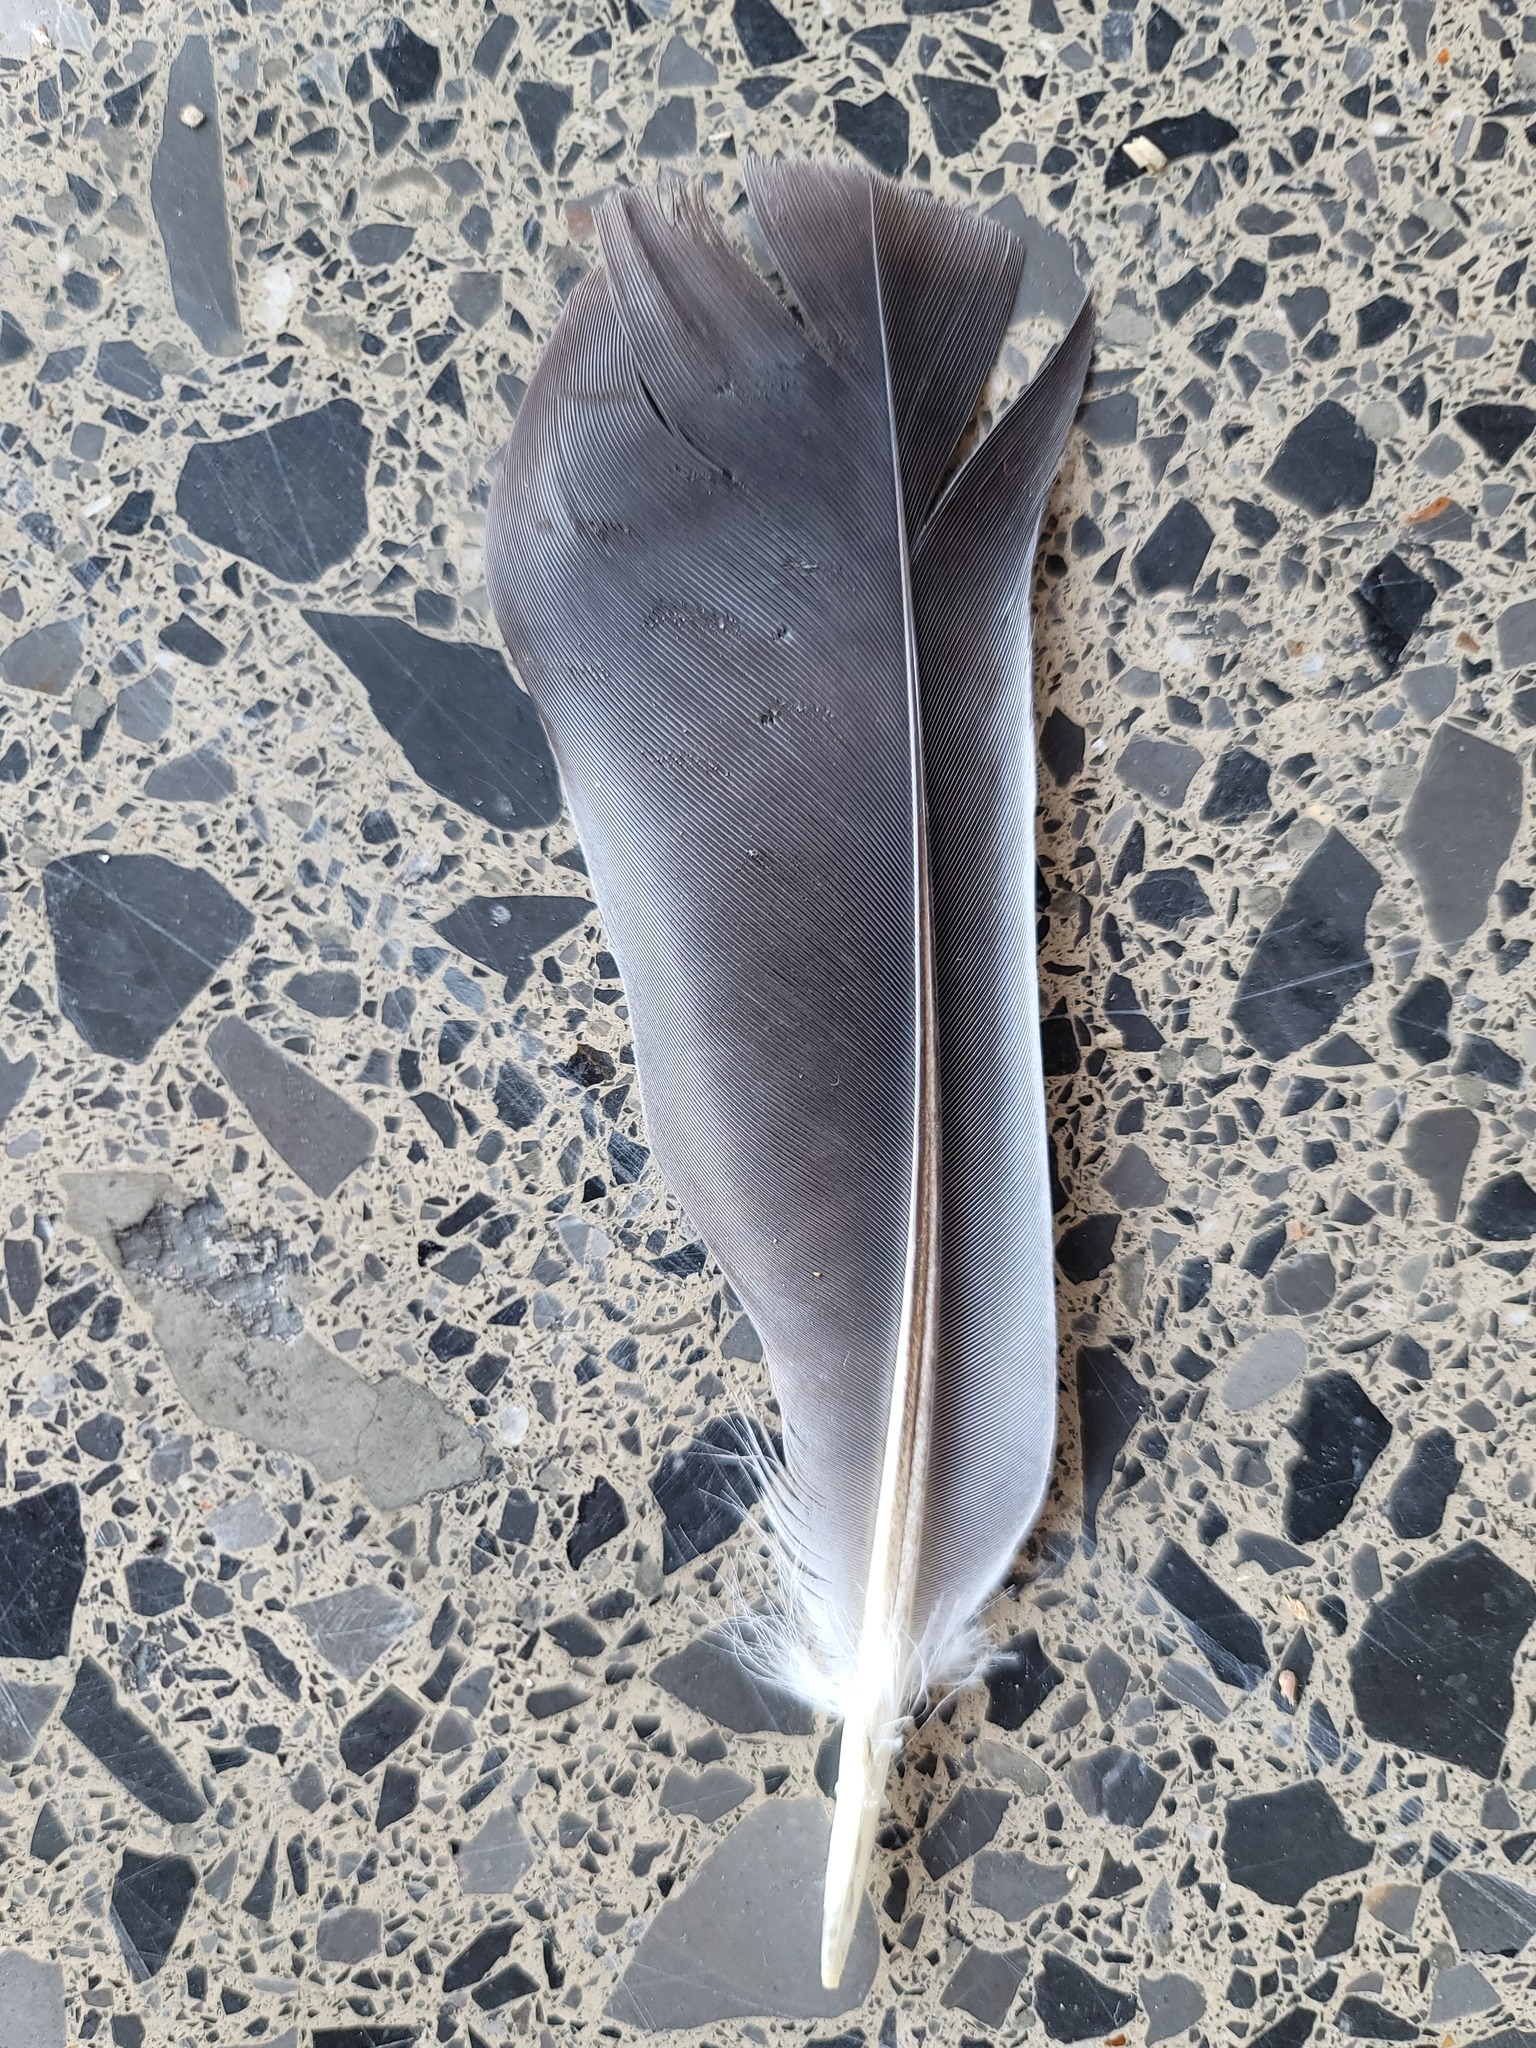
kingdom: Animalia
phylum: Chordata
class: Aves
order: Columbiformes
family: Columbidae
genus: Columba
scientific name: Columba livia
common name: Rock pigeon
